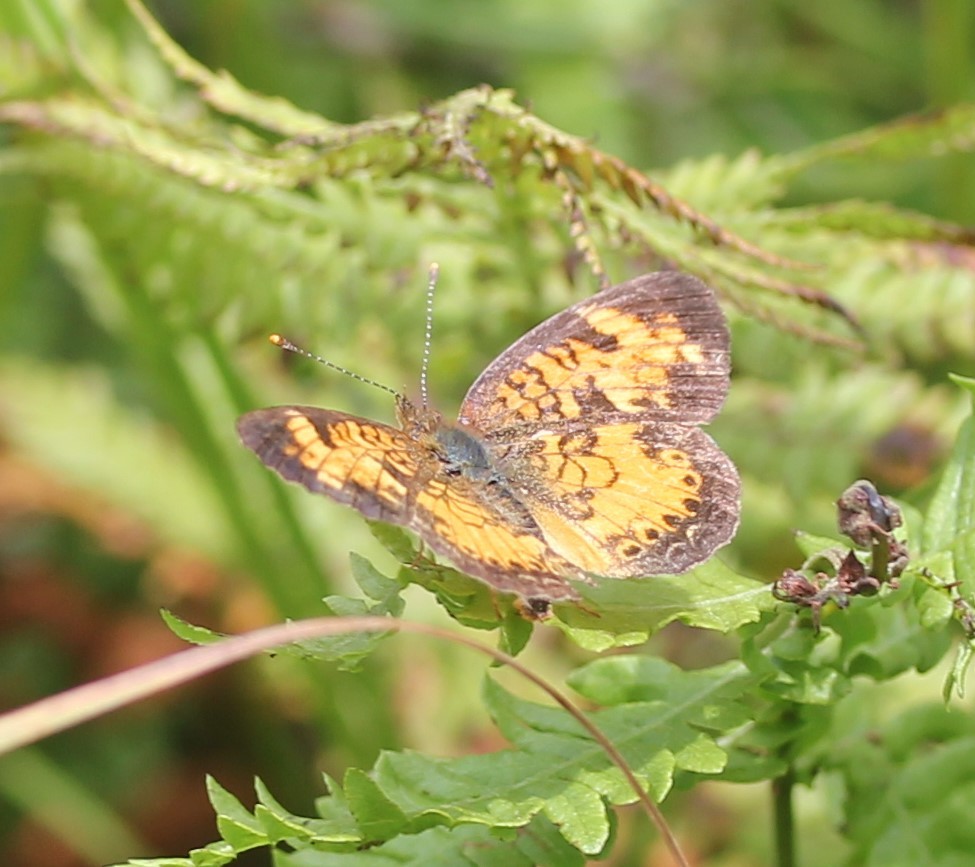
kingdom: Animalia
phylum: Arthropoda
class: Insecta
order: Lepidoptera
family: Nymphalidae
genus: Phyciodes
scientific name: Phyciodes tharos
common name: Pearl crescent
